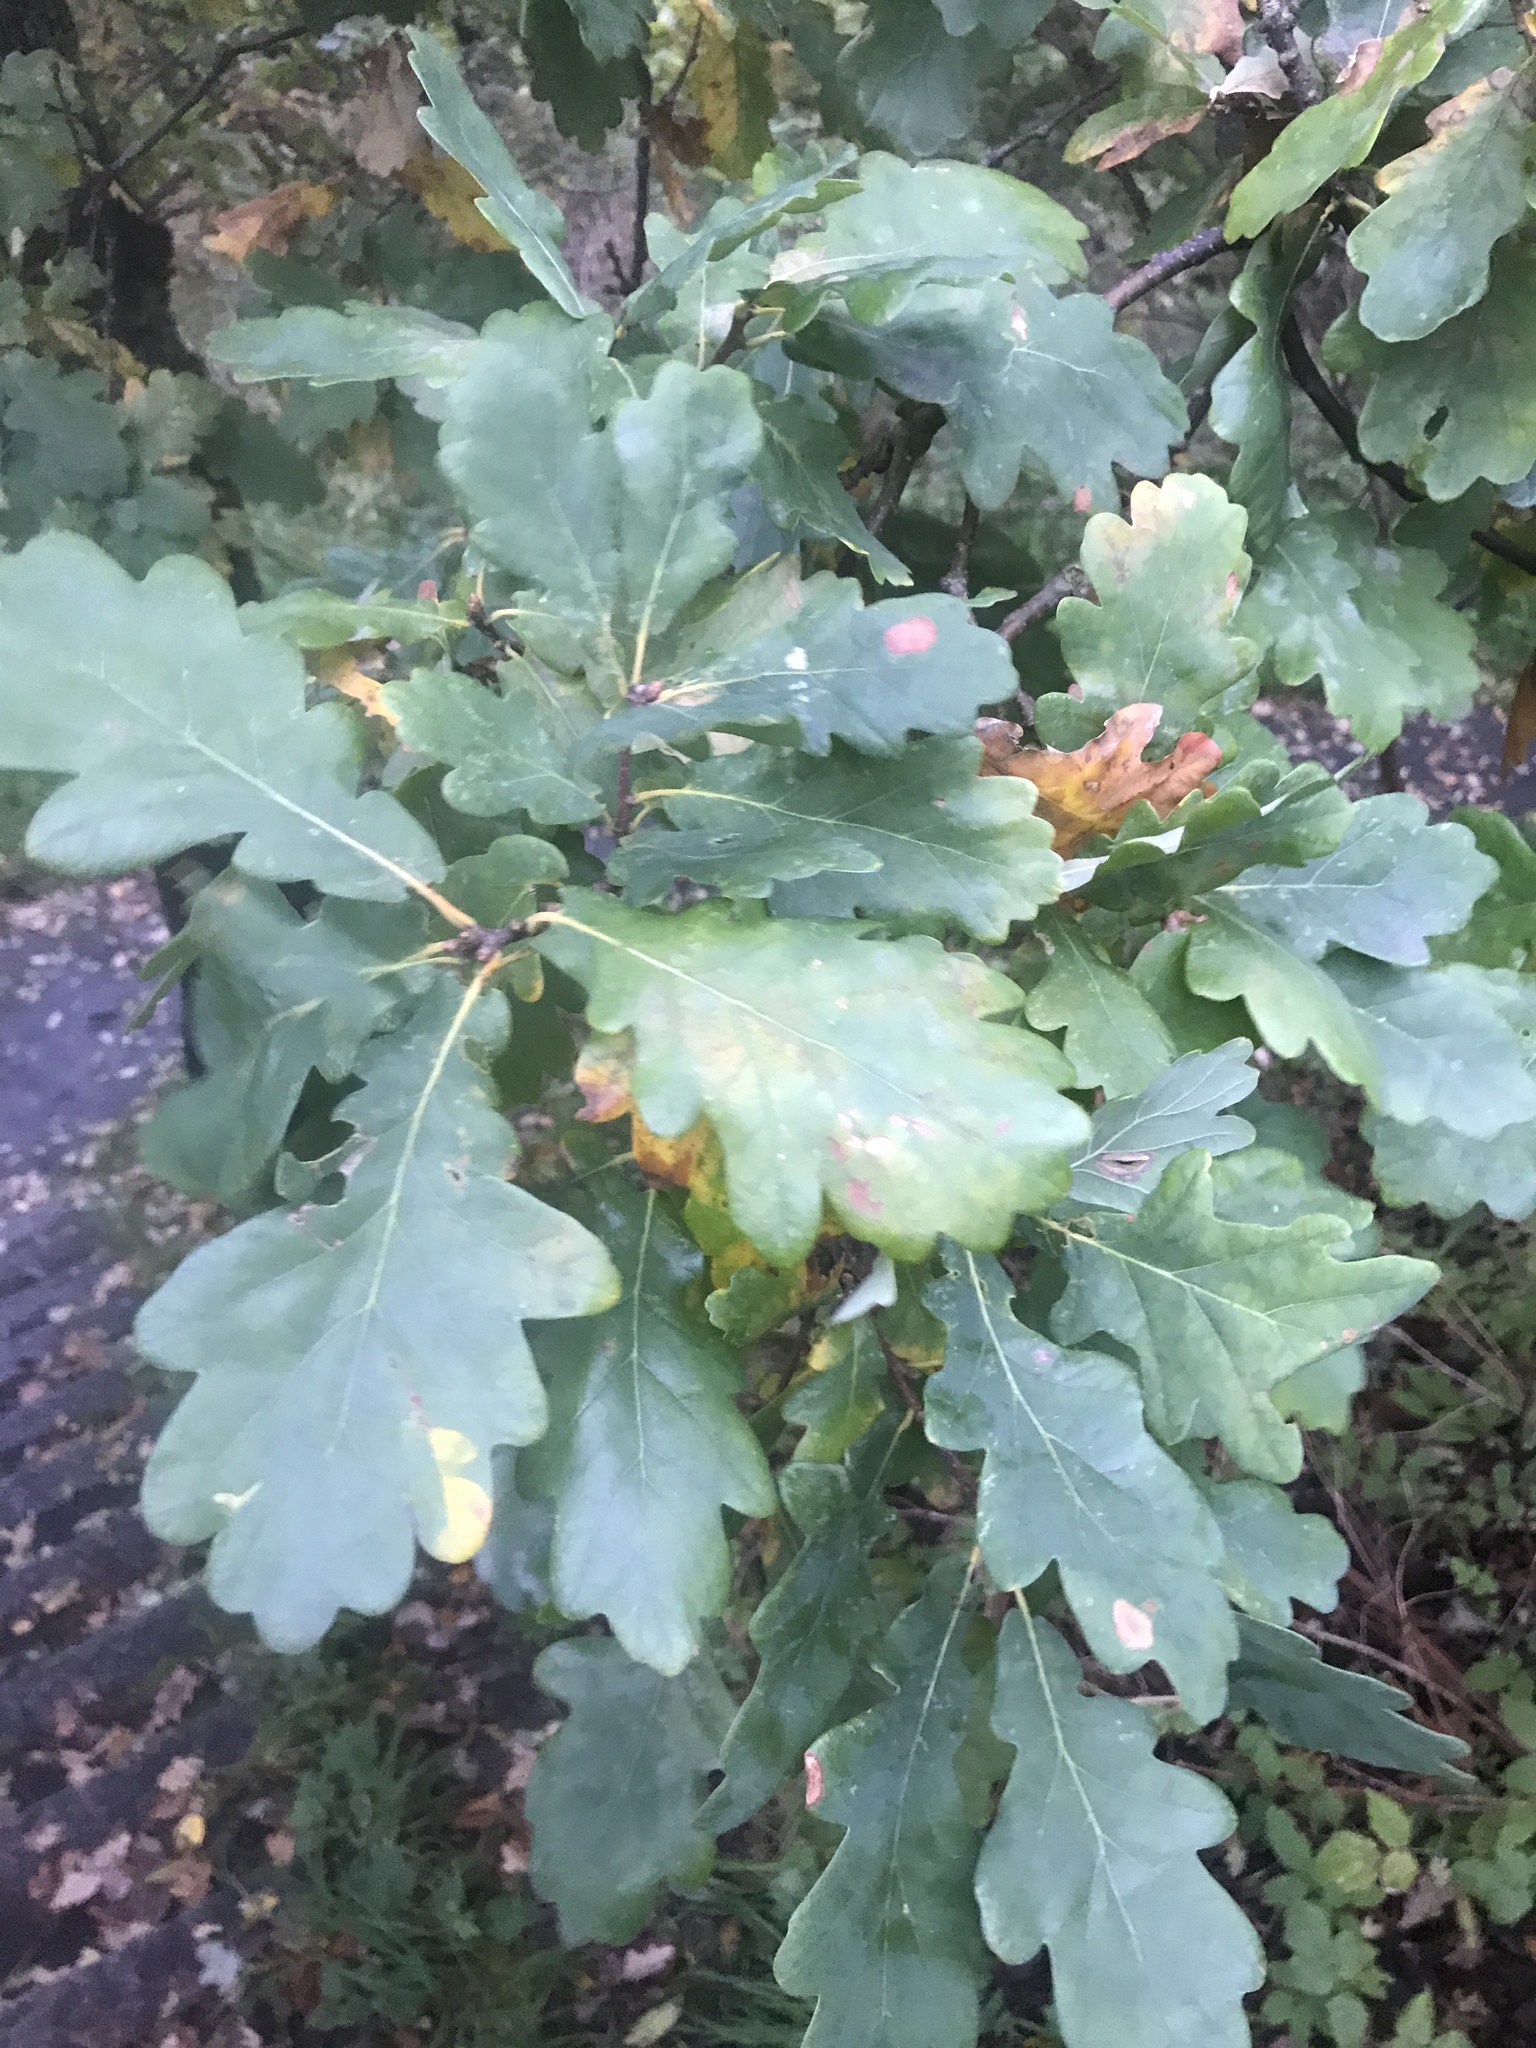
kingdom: Plantae
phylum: Tracheophyta
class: Magnoliopsida
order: Fagales
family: Fagaceae
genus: Quercus
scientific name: Quercus robur
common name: Pedunculate oak
